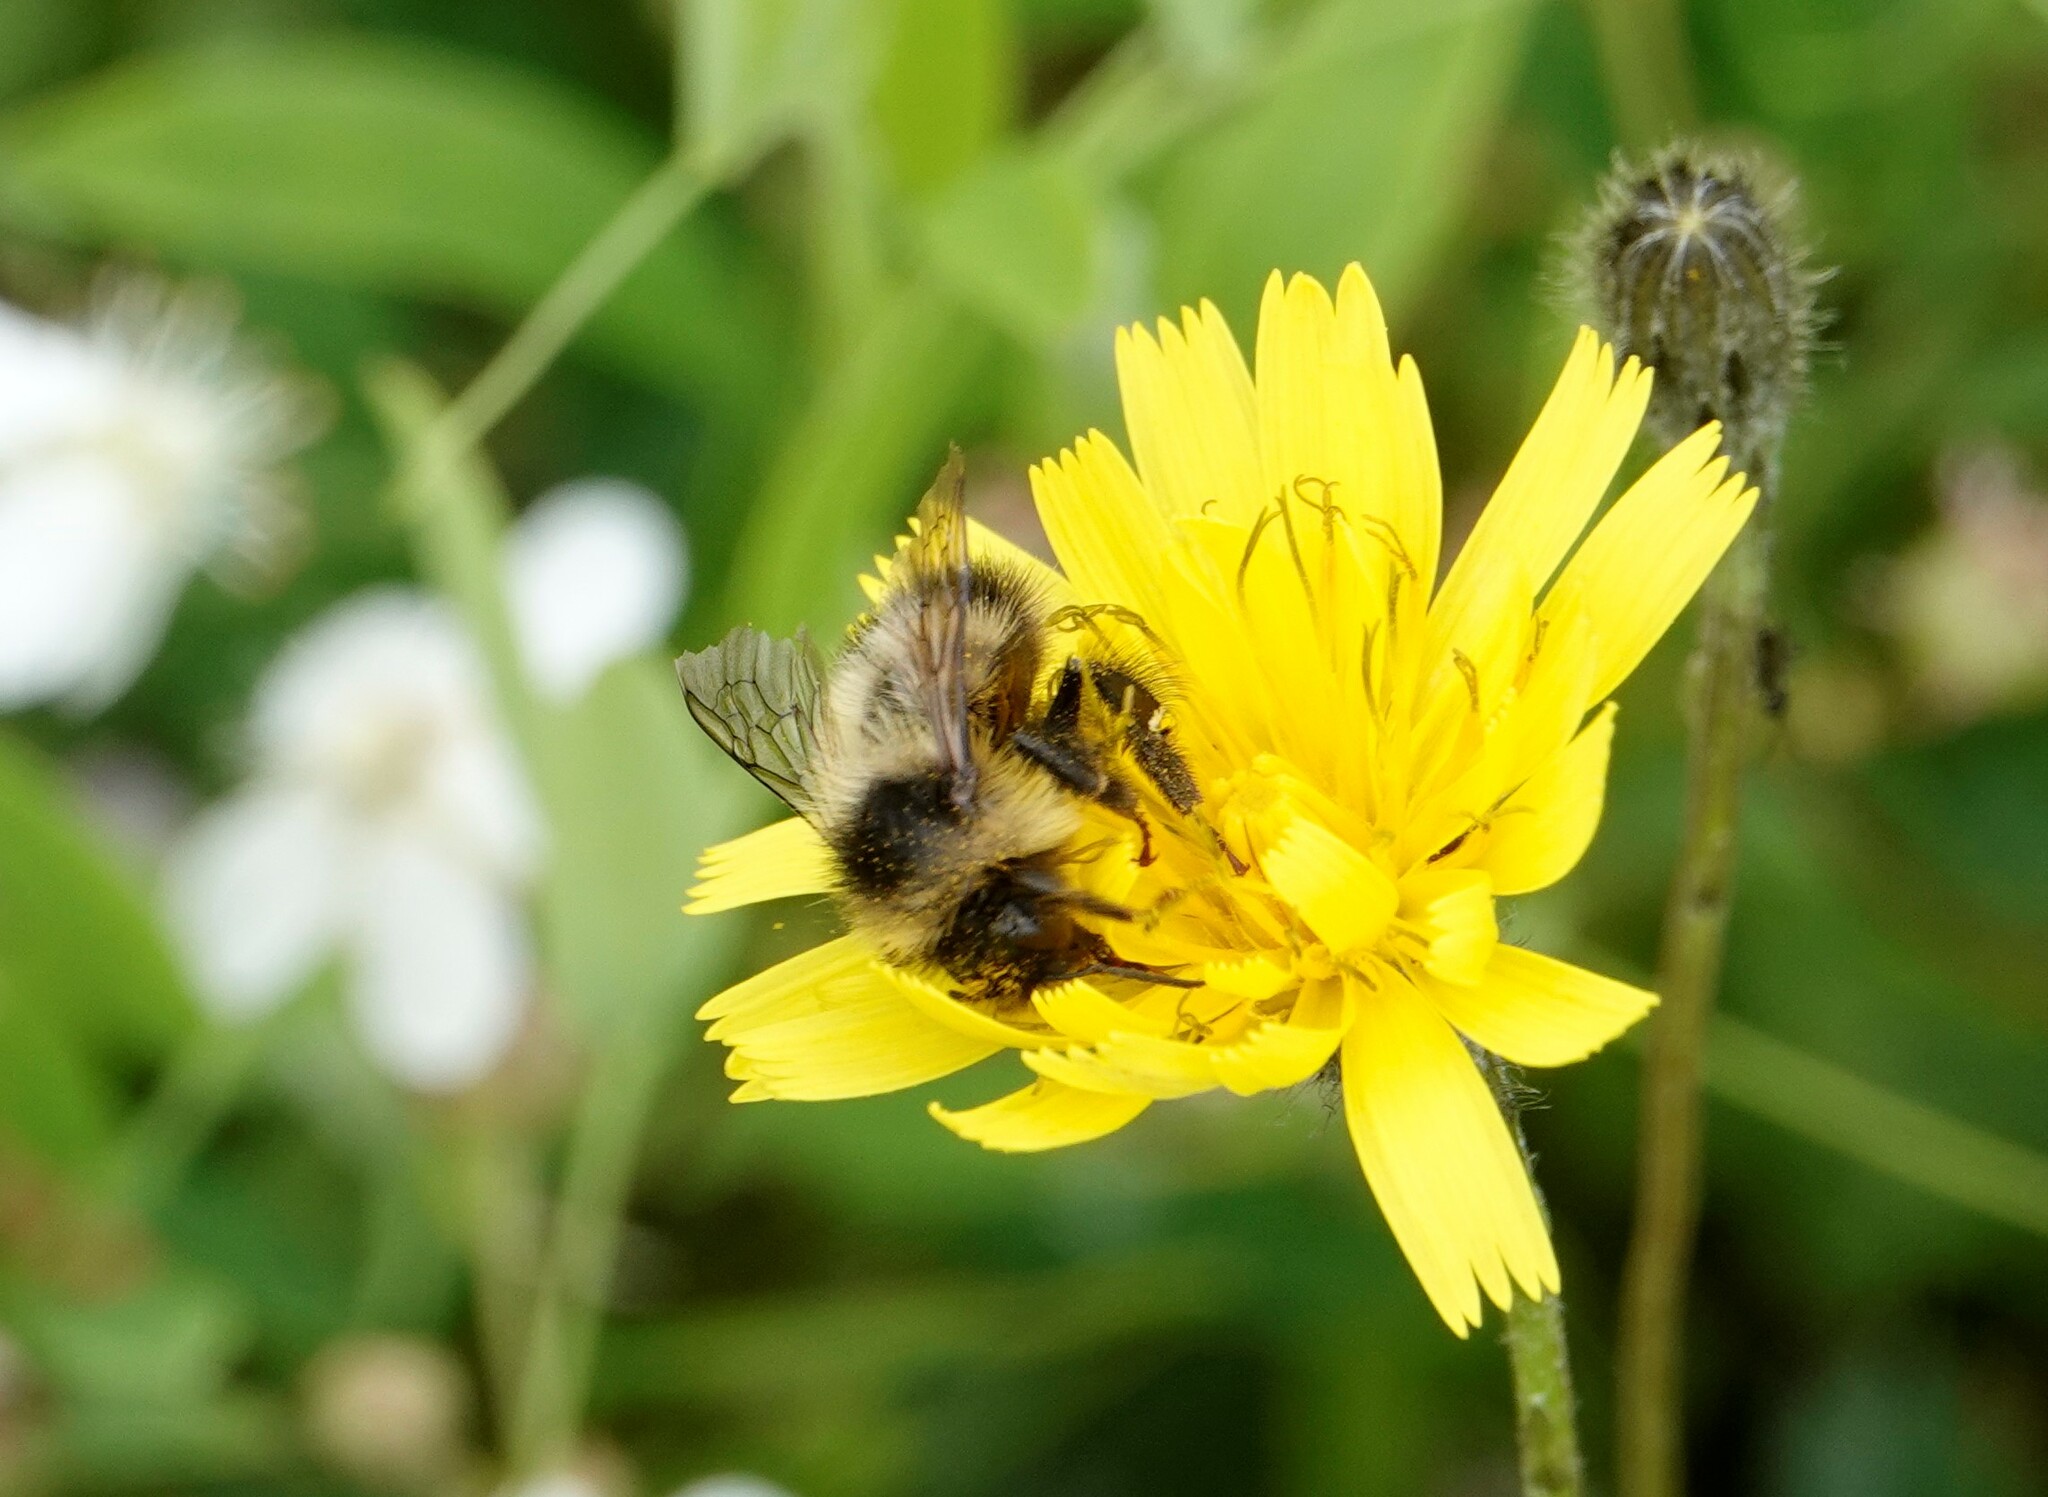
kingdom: Animalia
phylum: Arthropoda
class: Insecta
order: Hymenoptera
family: Apidae
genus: Bombus
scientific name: Bombus vagans
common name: Half-black bumble bee
